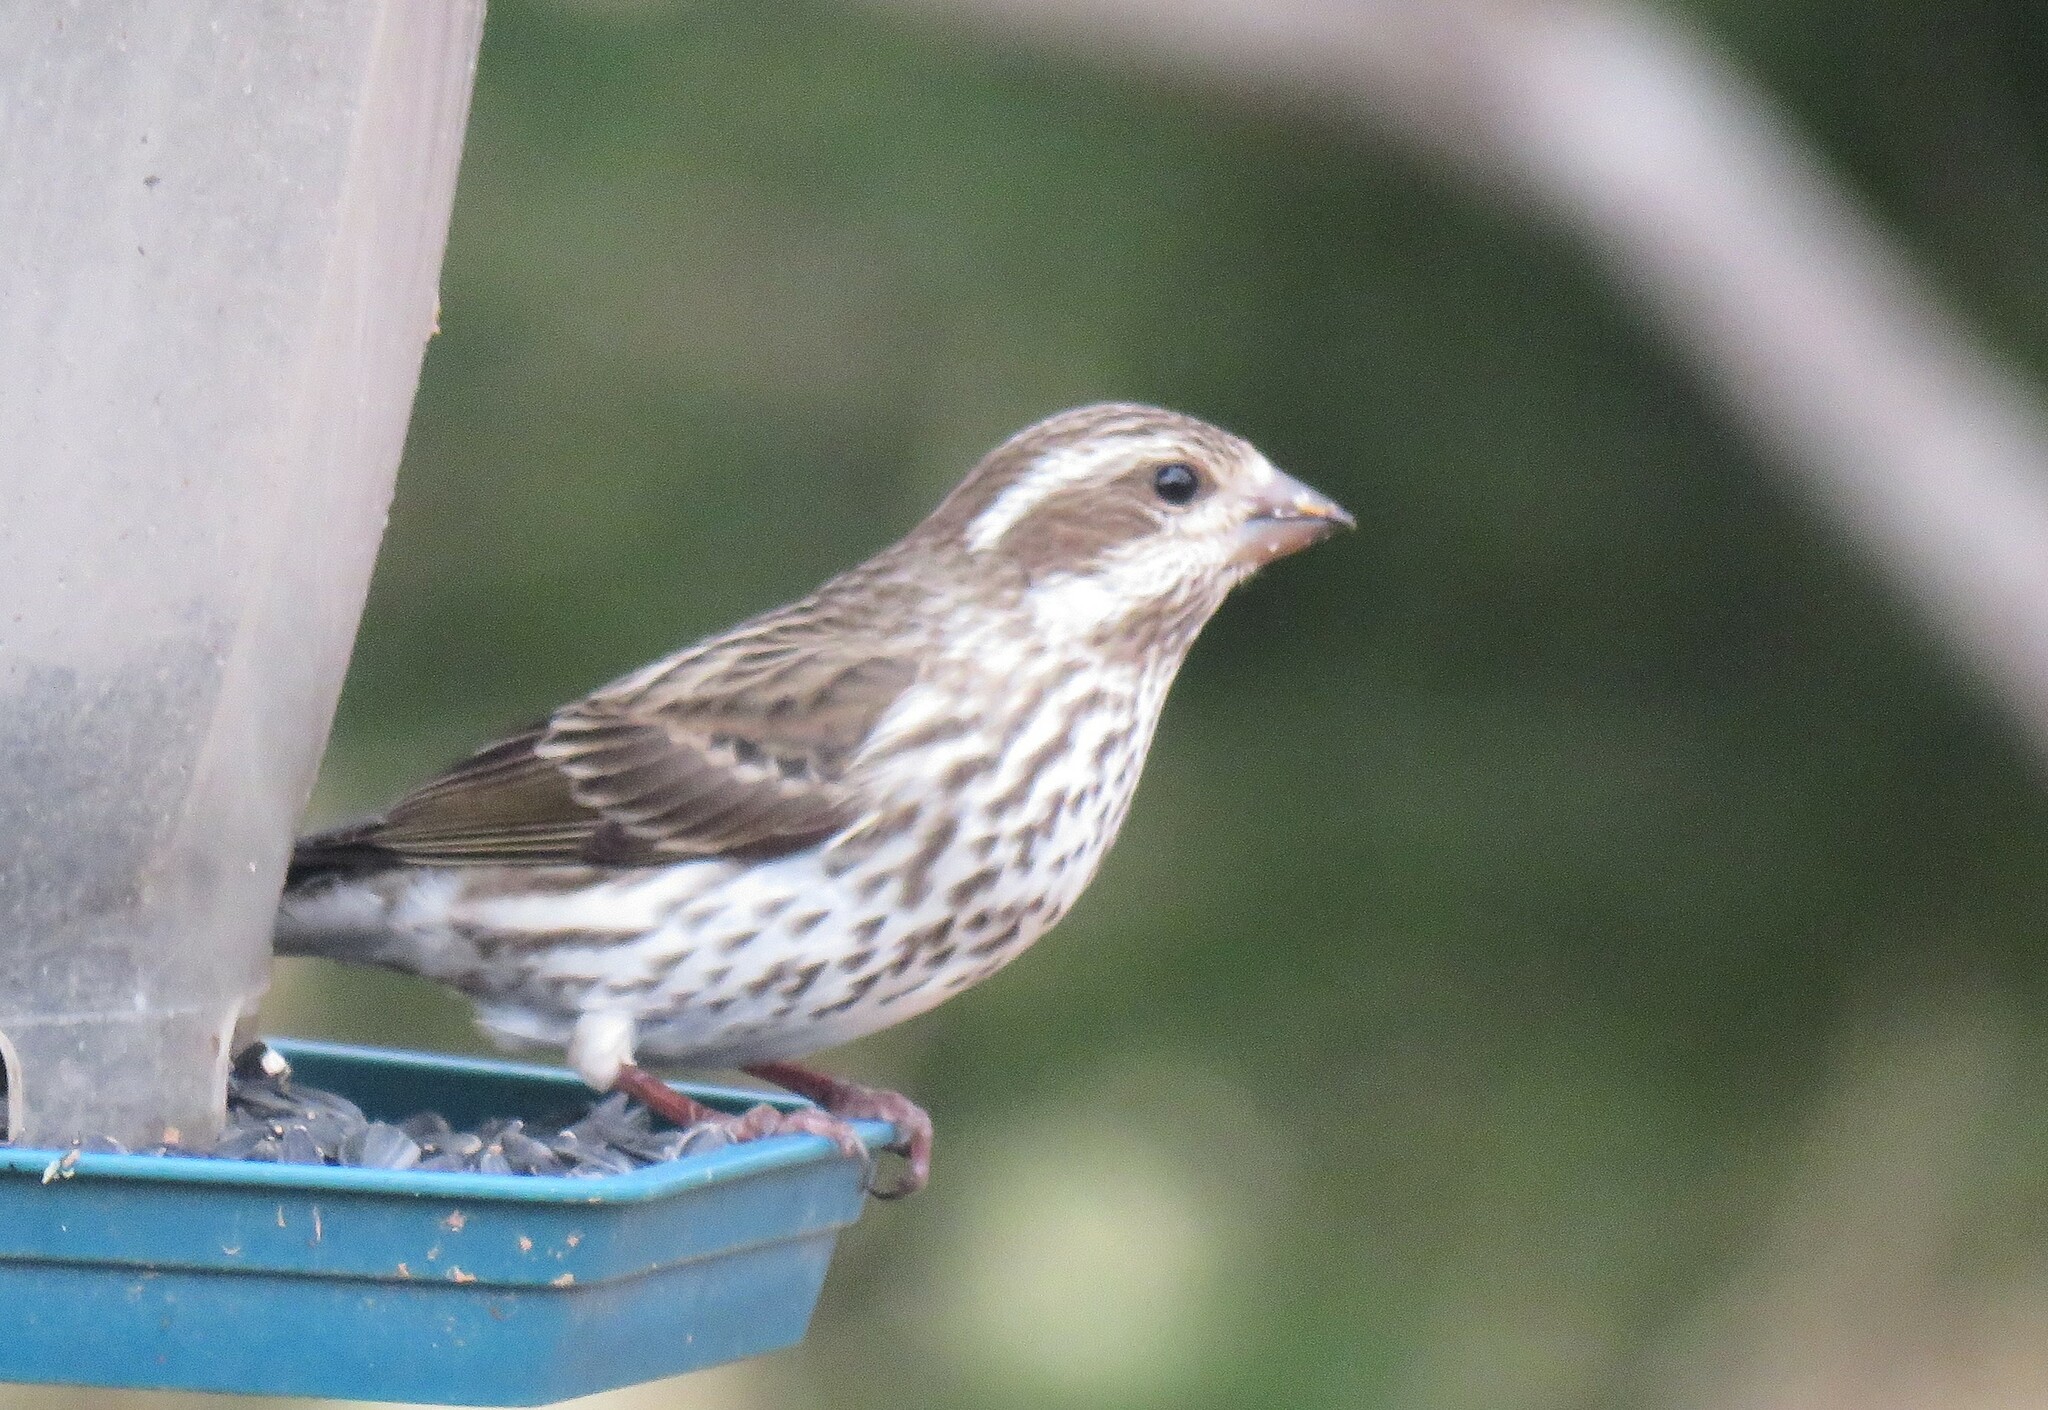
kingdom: Animalia
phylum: Chordata
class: Aves
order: Passeriformes
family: Fringillidae
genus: Haemorhous
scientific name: Haemorhous purpureus
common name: Purple finch
